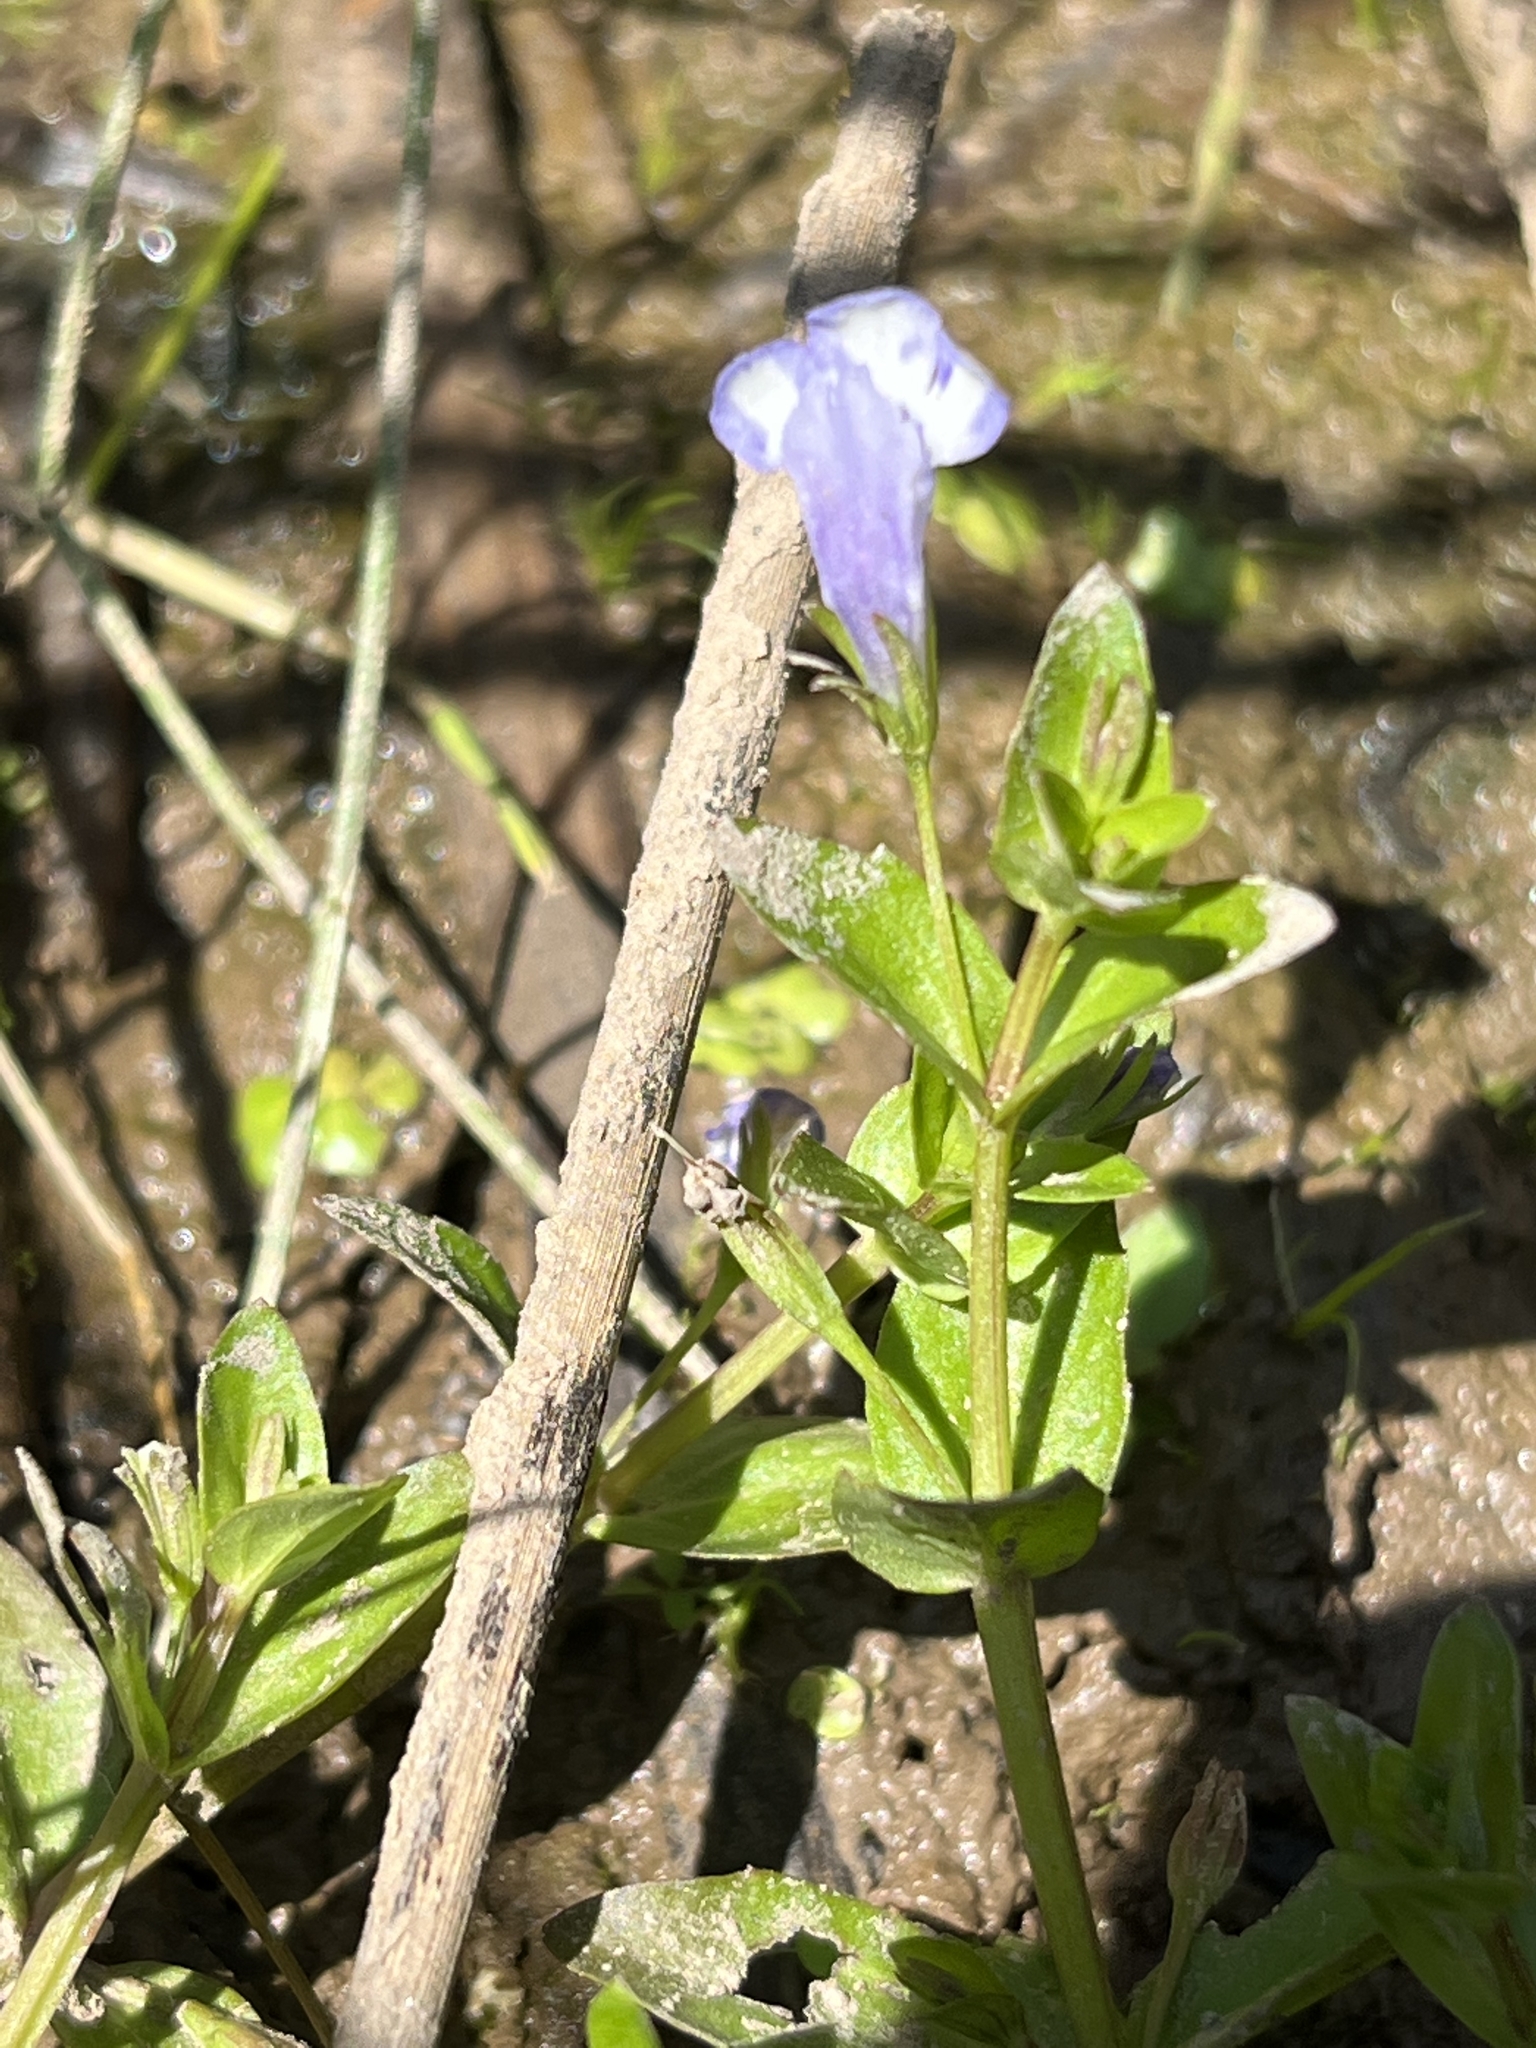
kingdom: Plantae
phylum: Tracheophyta
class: Magnoliopsida
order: Lamiales
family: Linderniaceae
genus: Lindernia
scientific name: Lindernia dubia
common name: Annual false pimpernel
